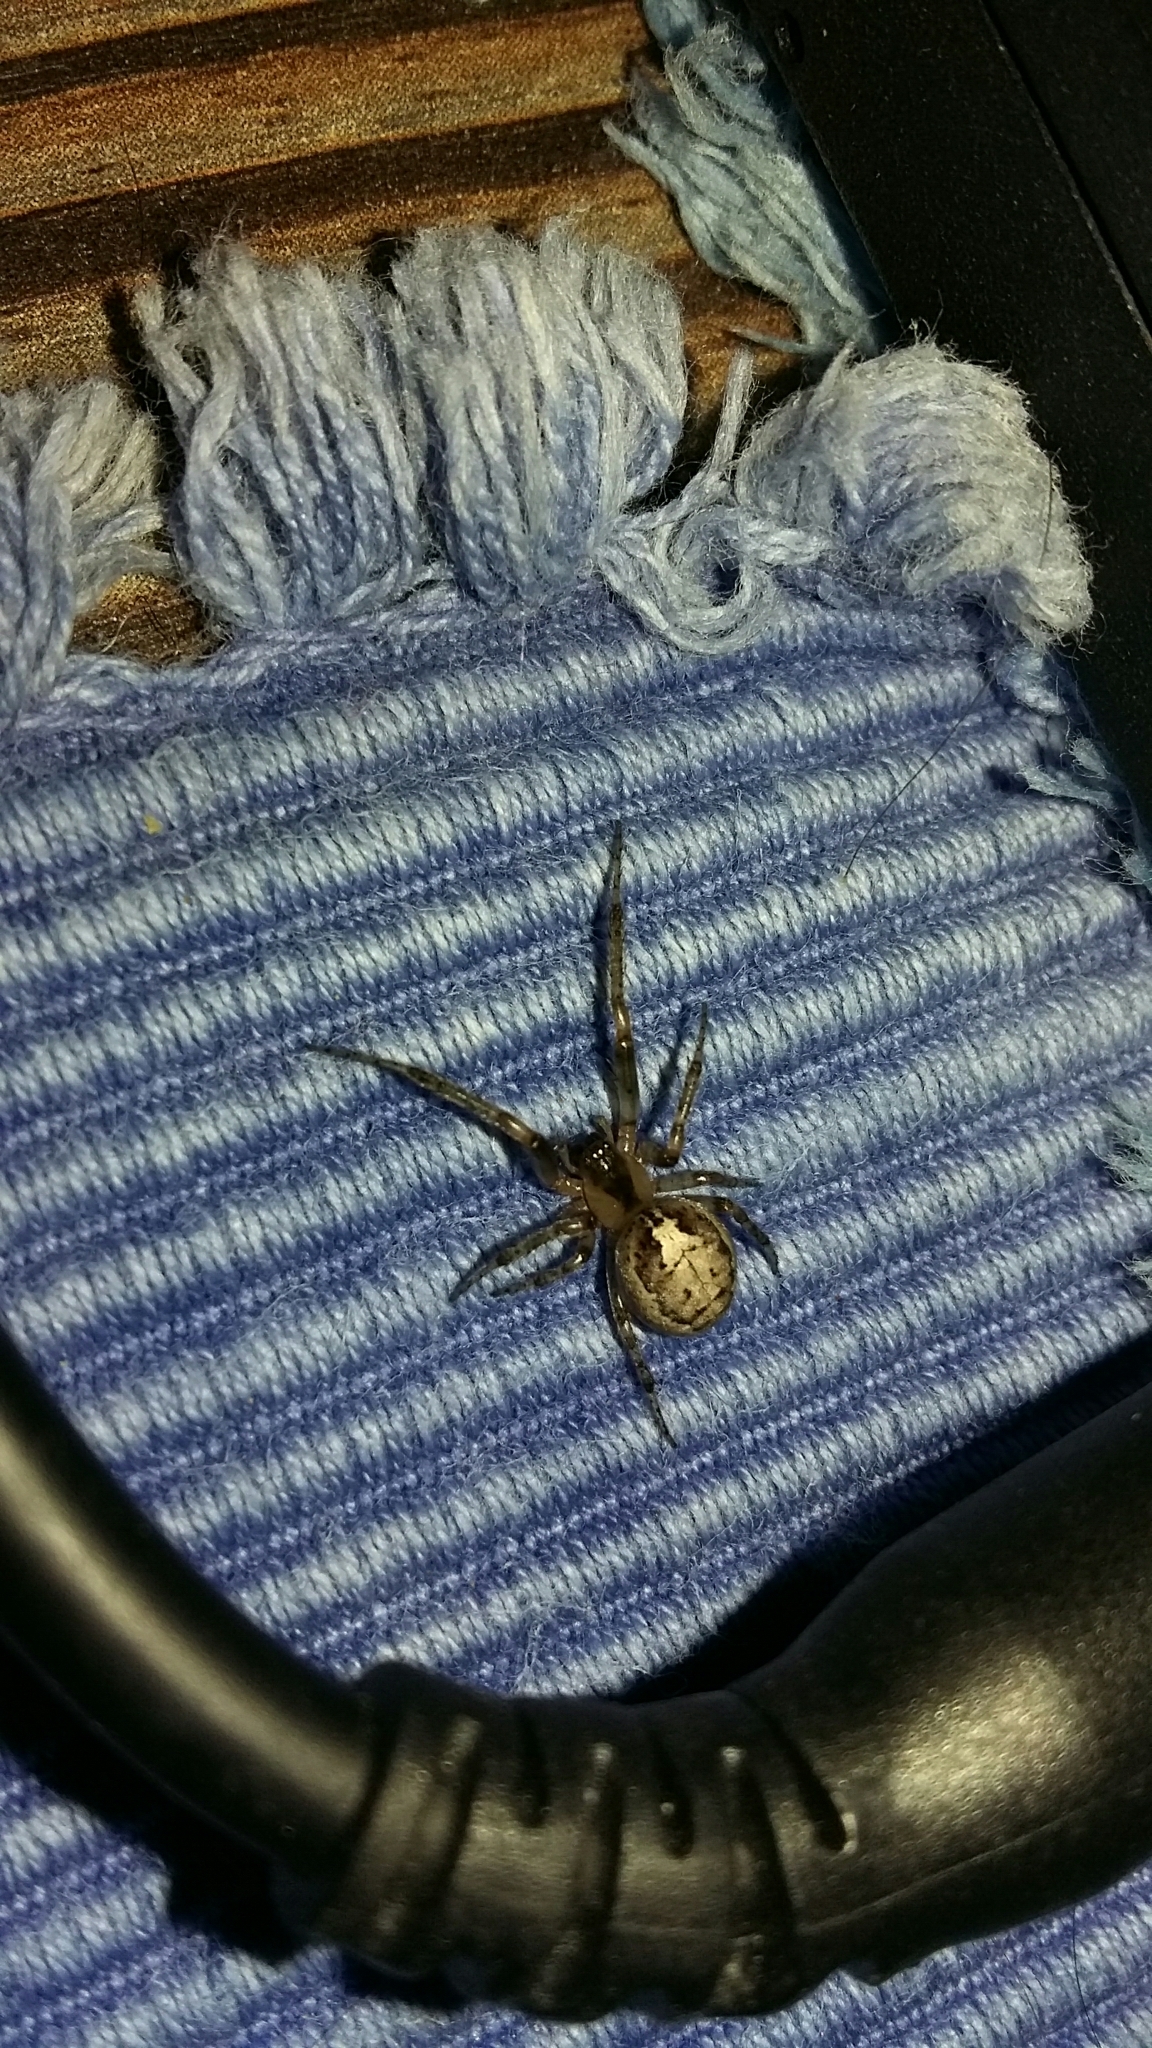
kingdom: Animalia
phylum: Arthropoda
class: Arachnida
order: Araneae
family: Araneidae
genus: Zygiella
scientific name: Zygiella x-notata
